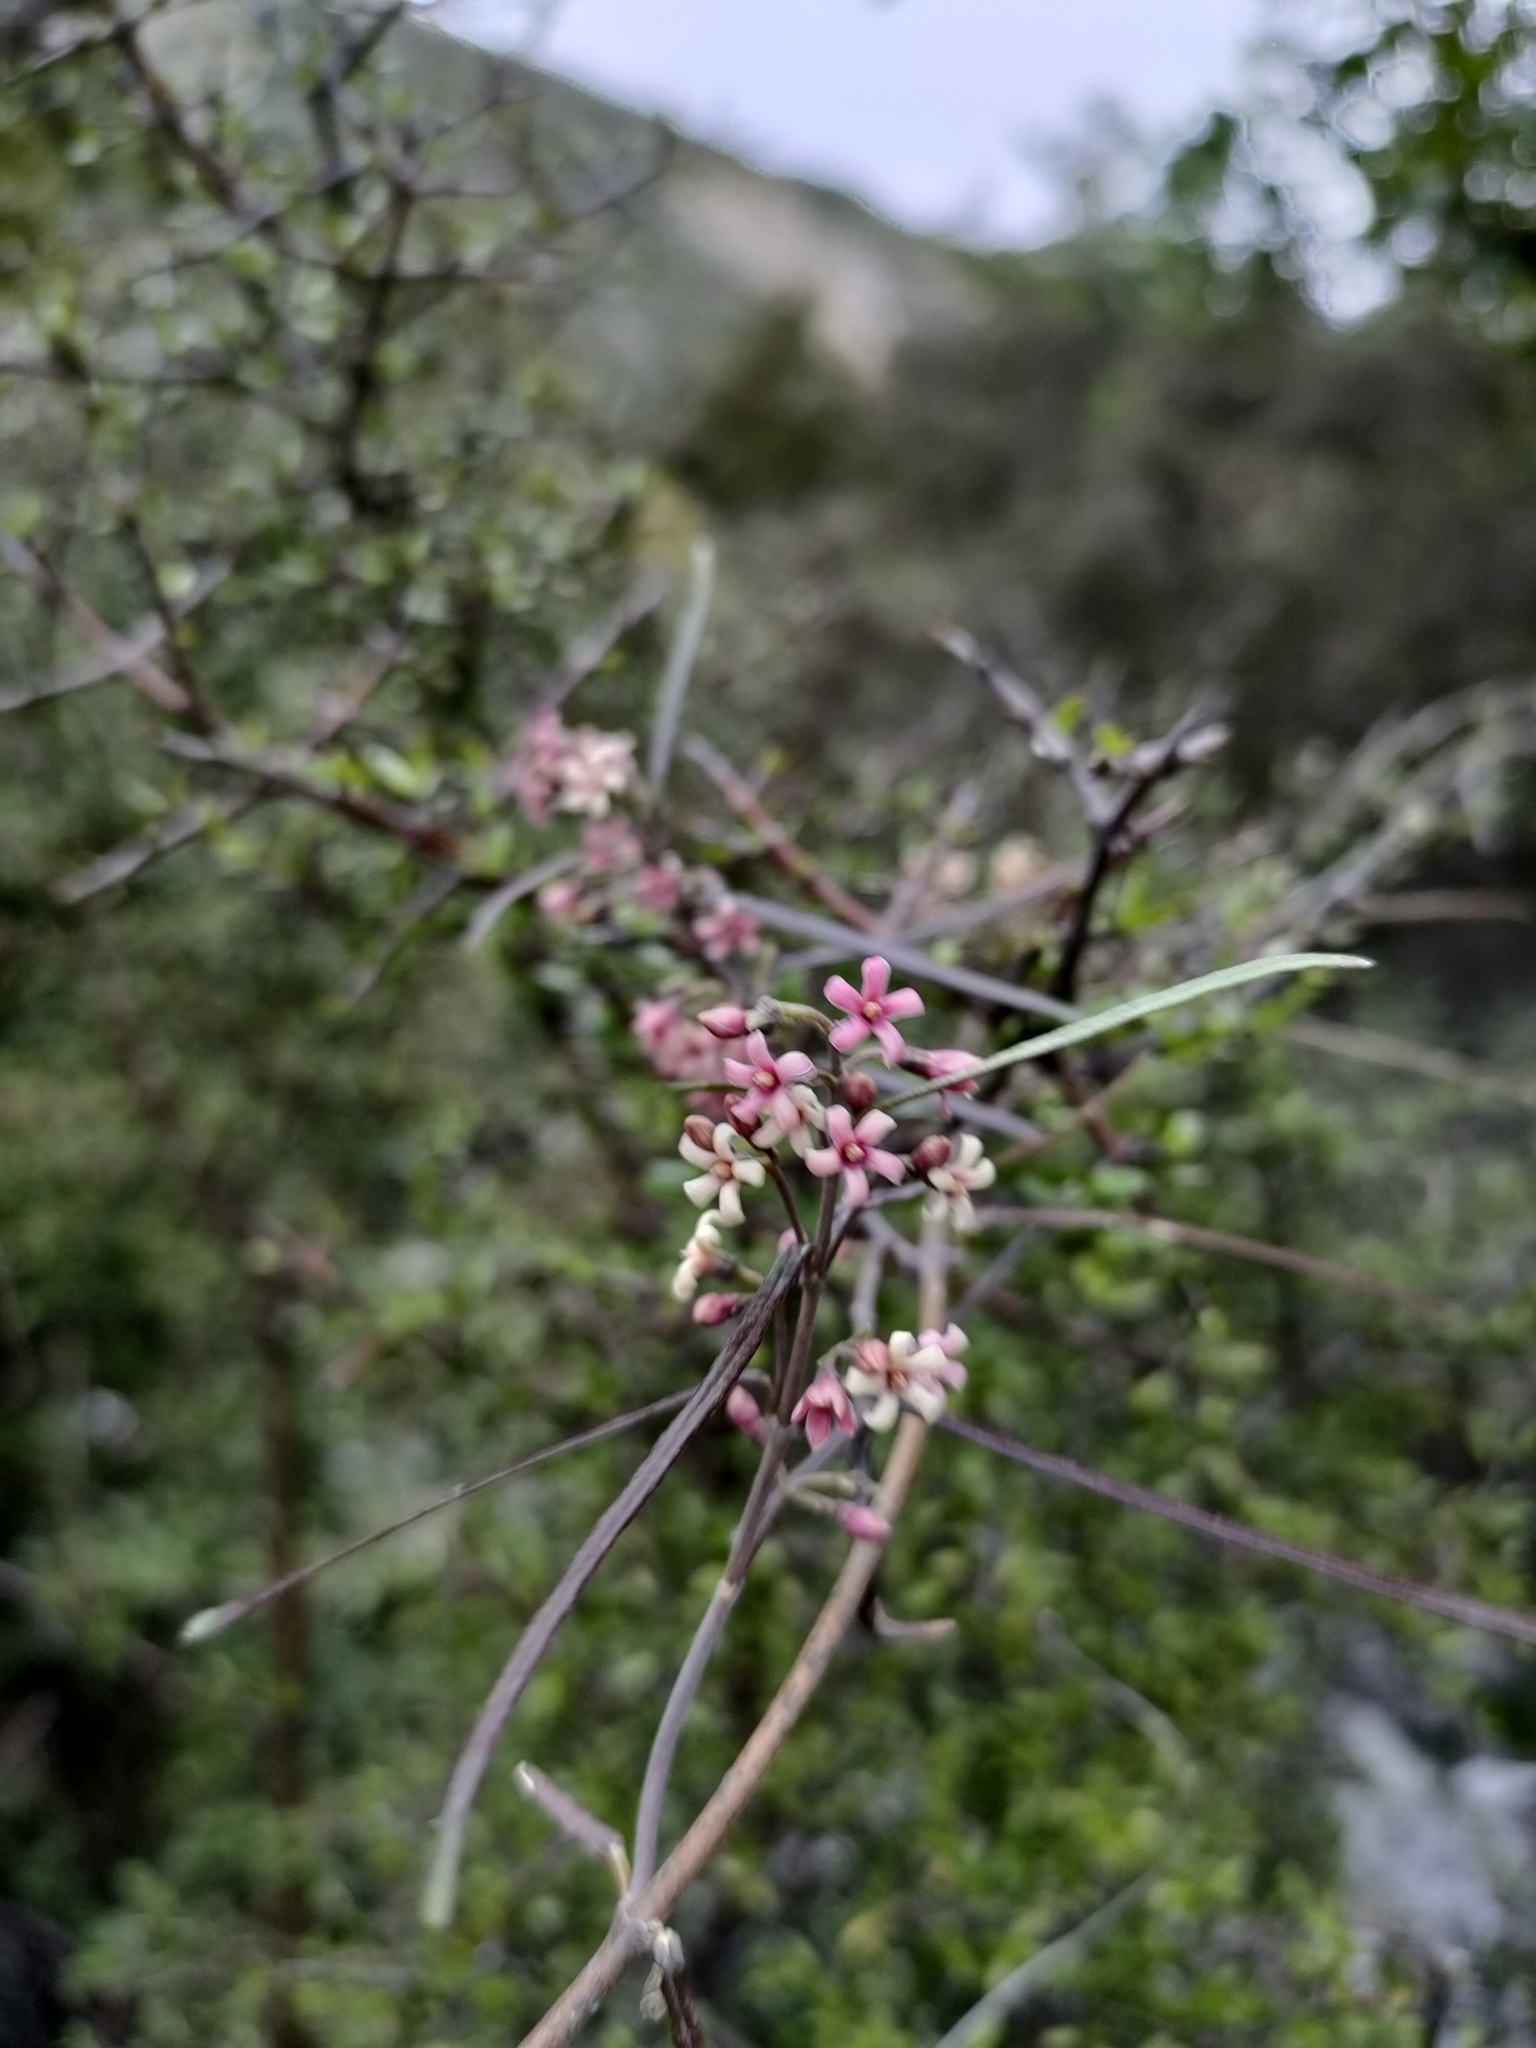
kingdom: Plantae
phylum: Tracheophyta
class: Magnoliopsida
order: Gentianales
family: Apocynaceae
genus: Parsonsia
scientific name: Parsonsia capsularis
